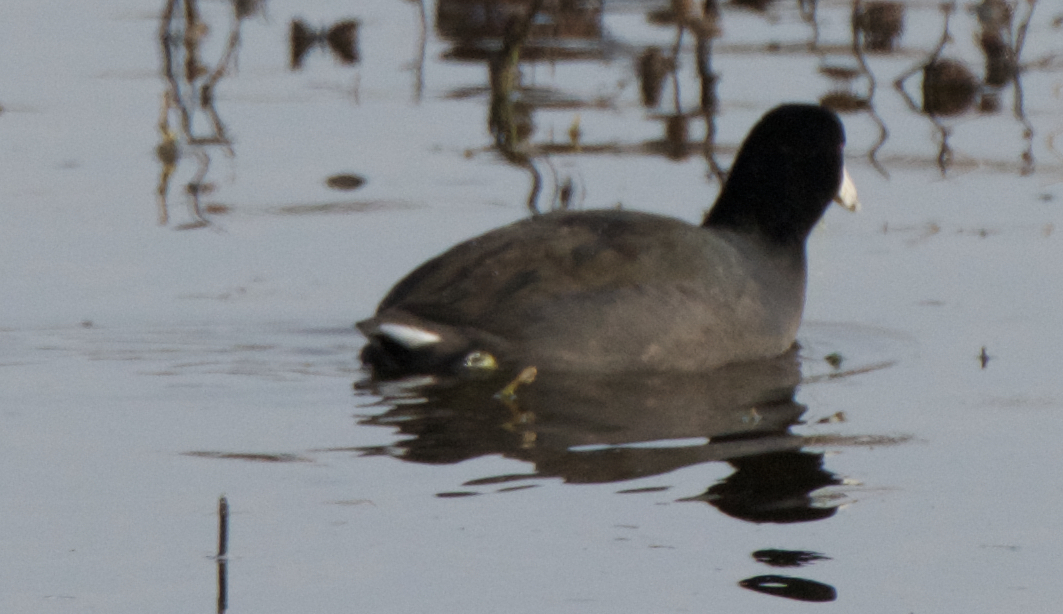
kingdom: Animalia
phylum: Chordata
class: Aves
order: Gruiformes
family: Rallidae
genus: Fulica
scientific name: Fulica americana
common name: American coot
